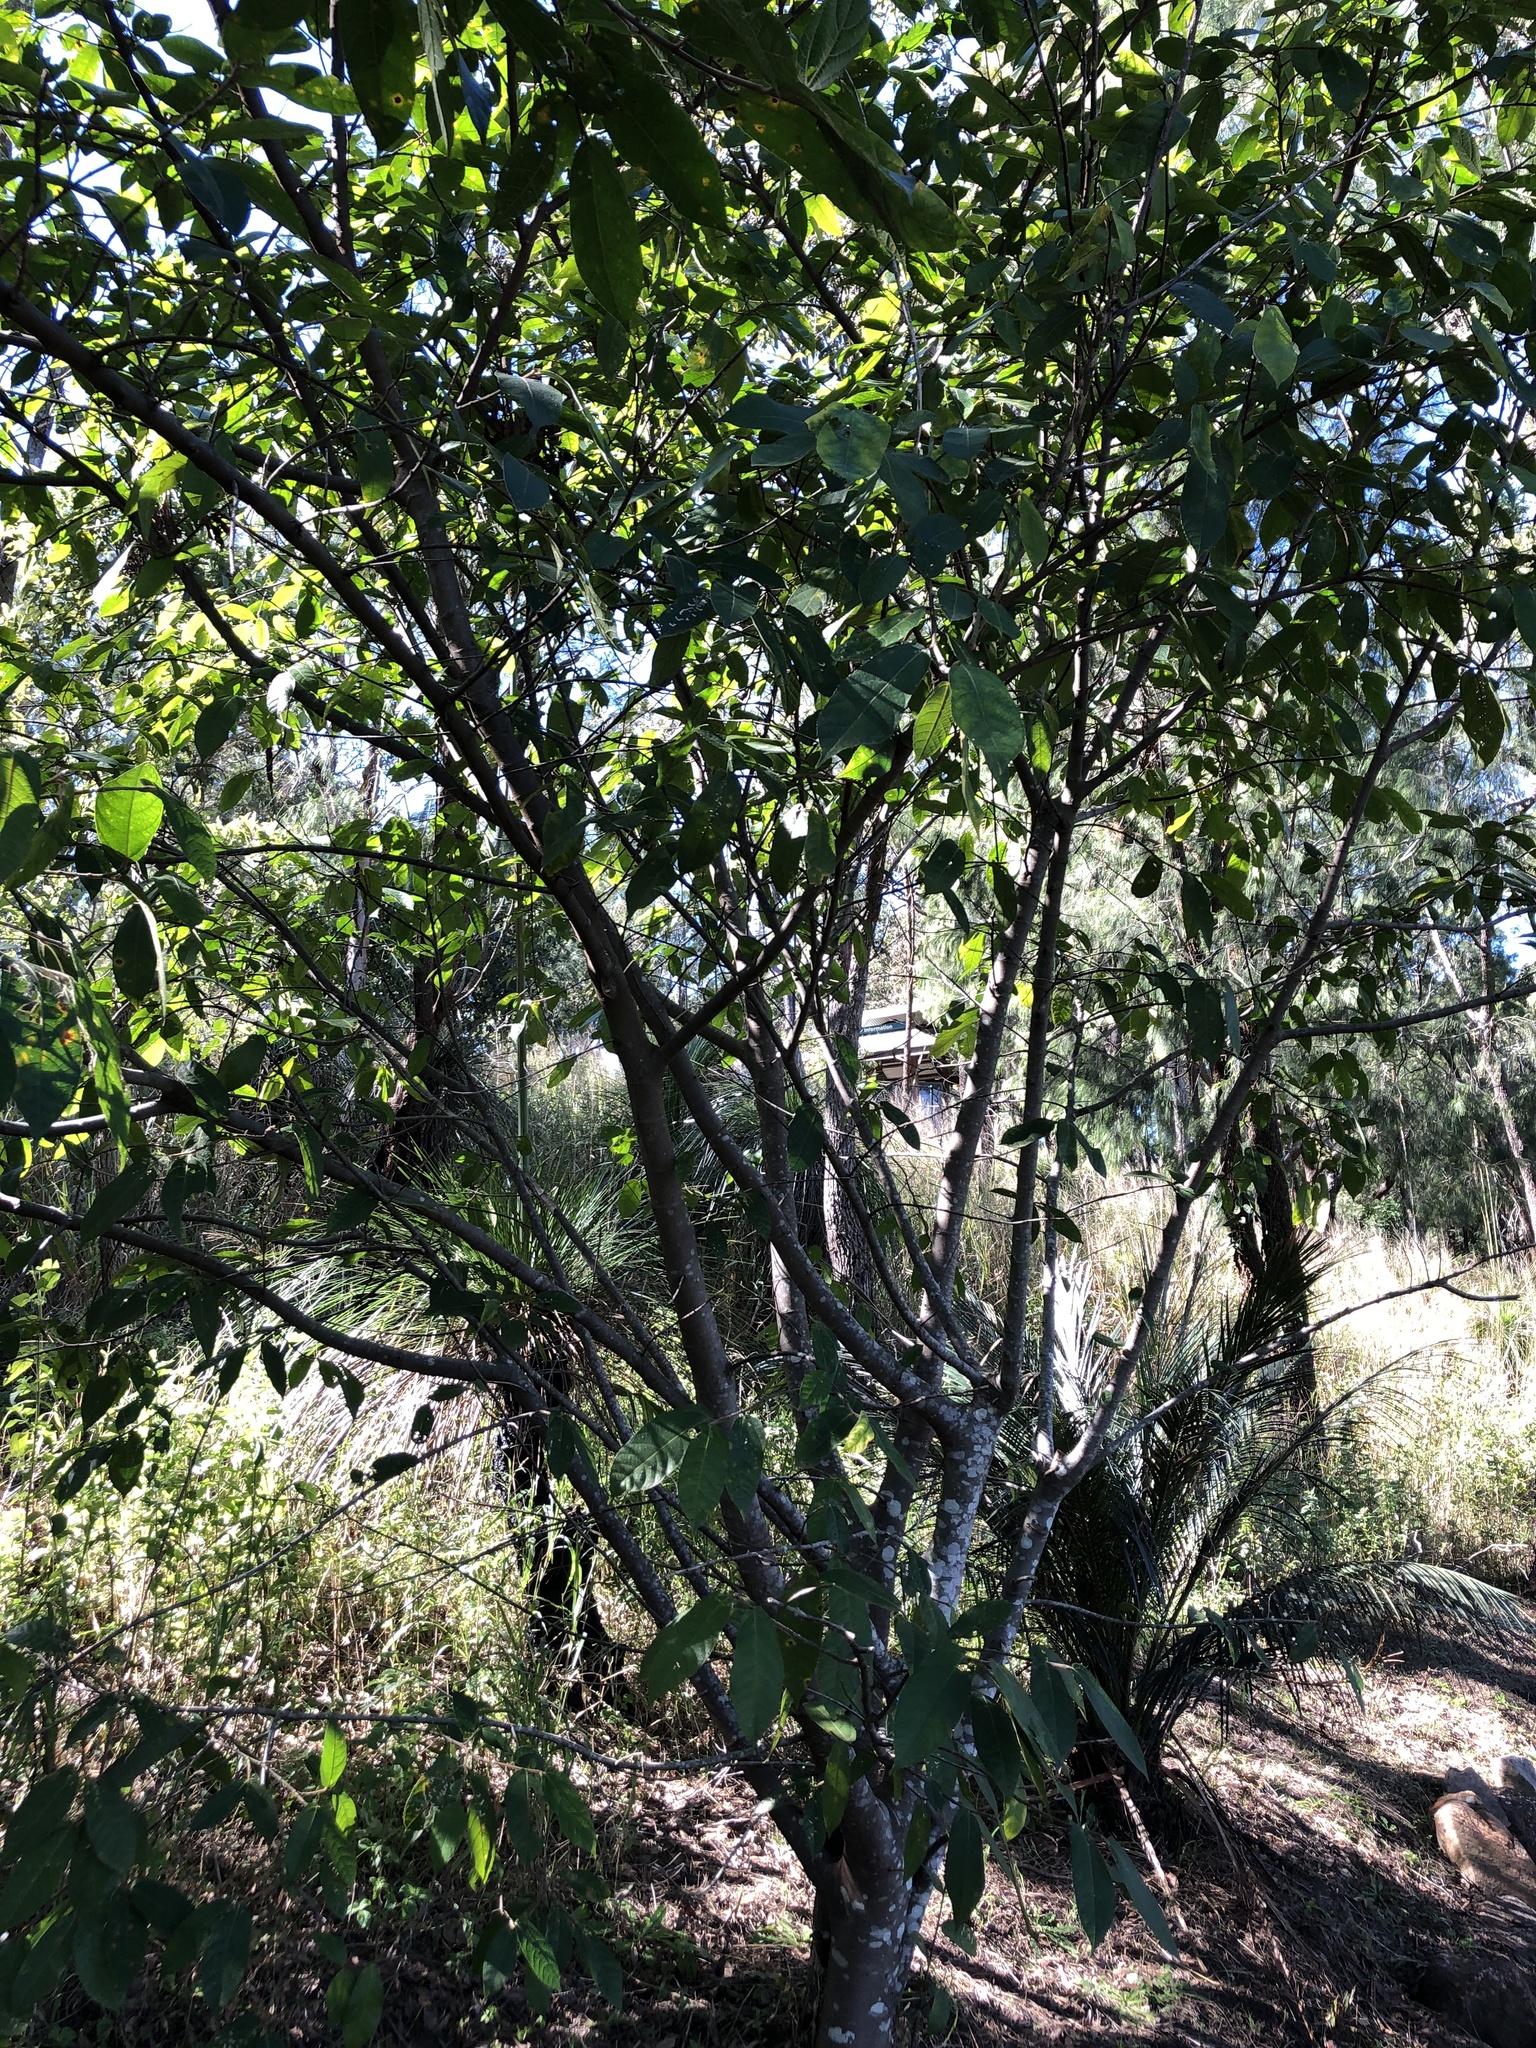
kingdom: Plantae
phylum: Tracheophyta
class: Magnoliopsida
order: Rosales
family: Moraceae
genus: Ficus
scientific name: Ficus coronata
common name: Creek sandpaper fig
